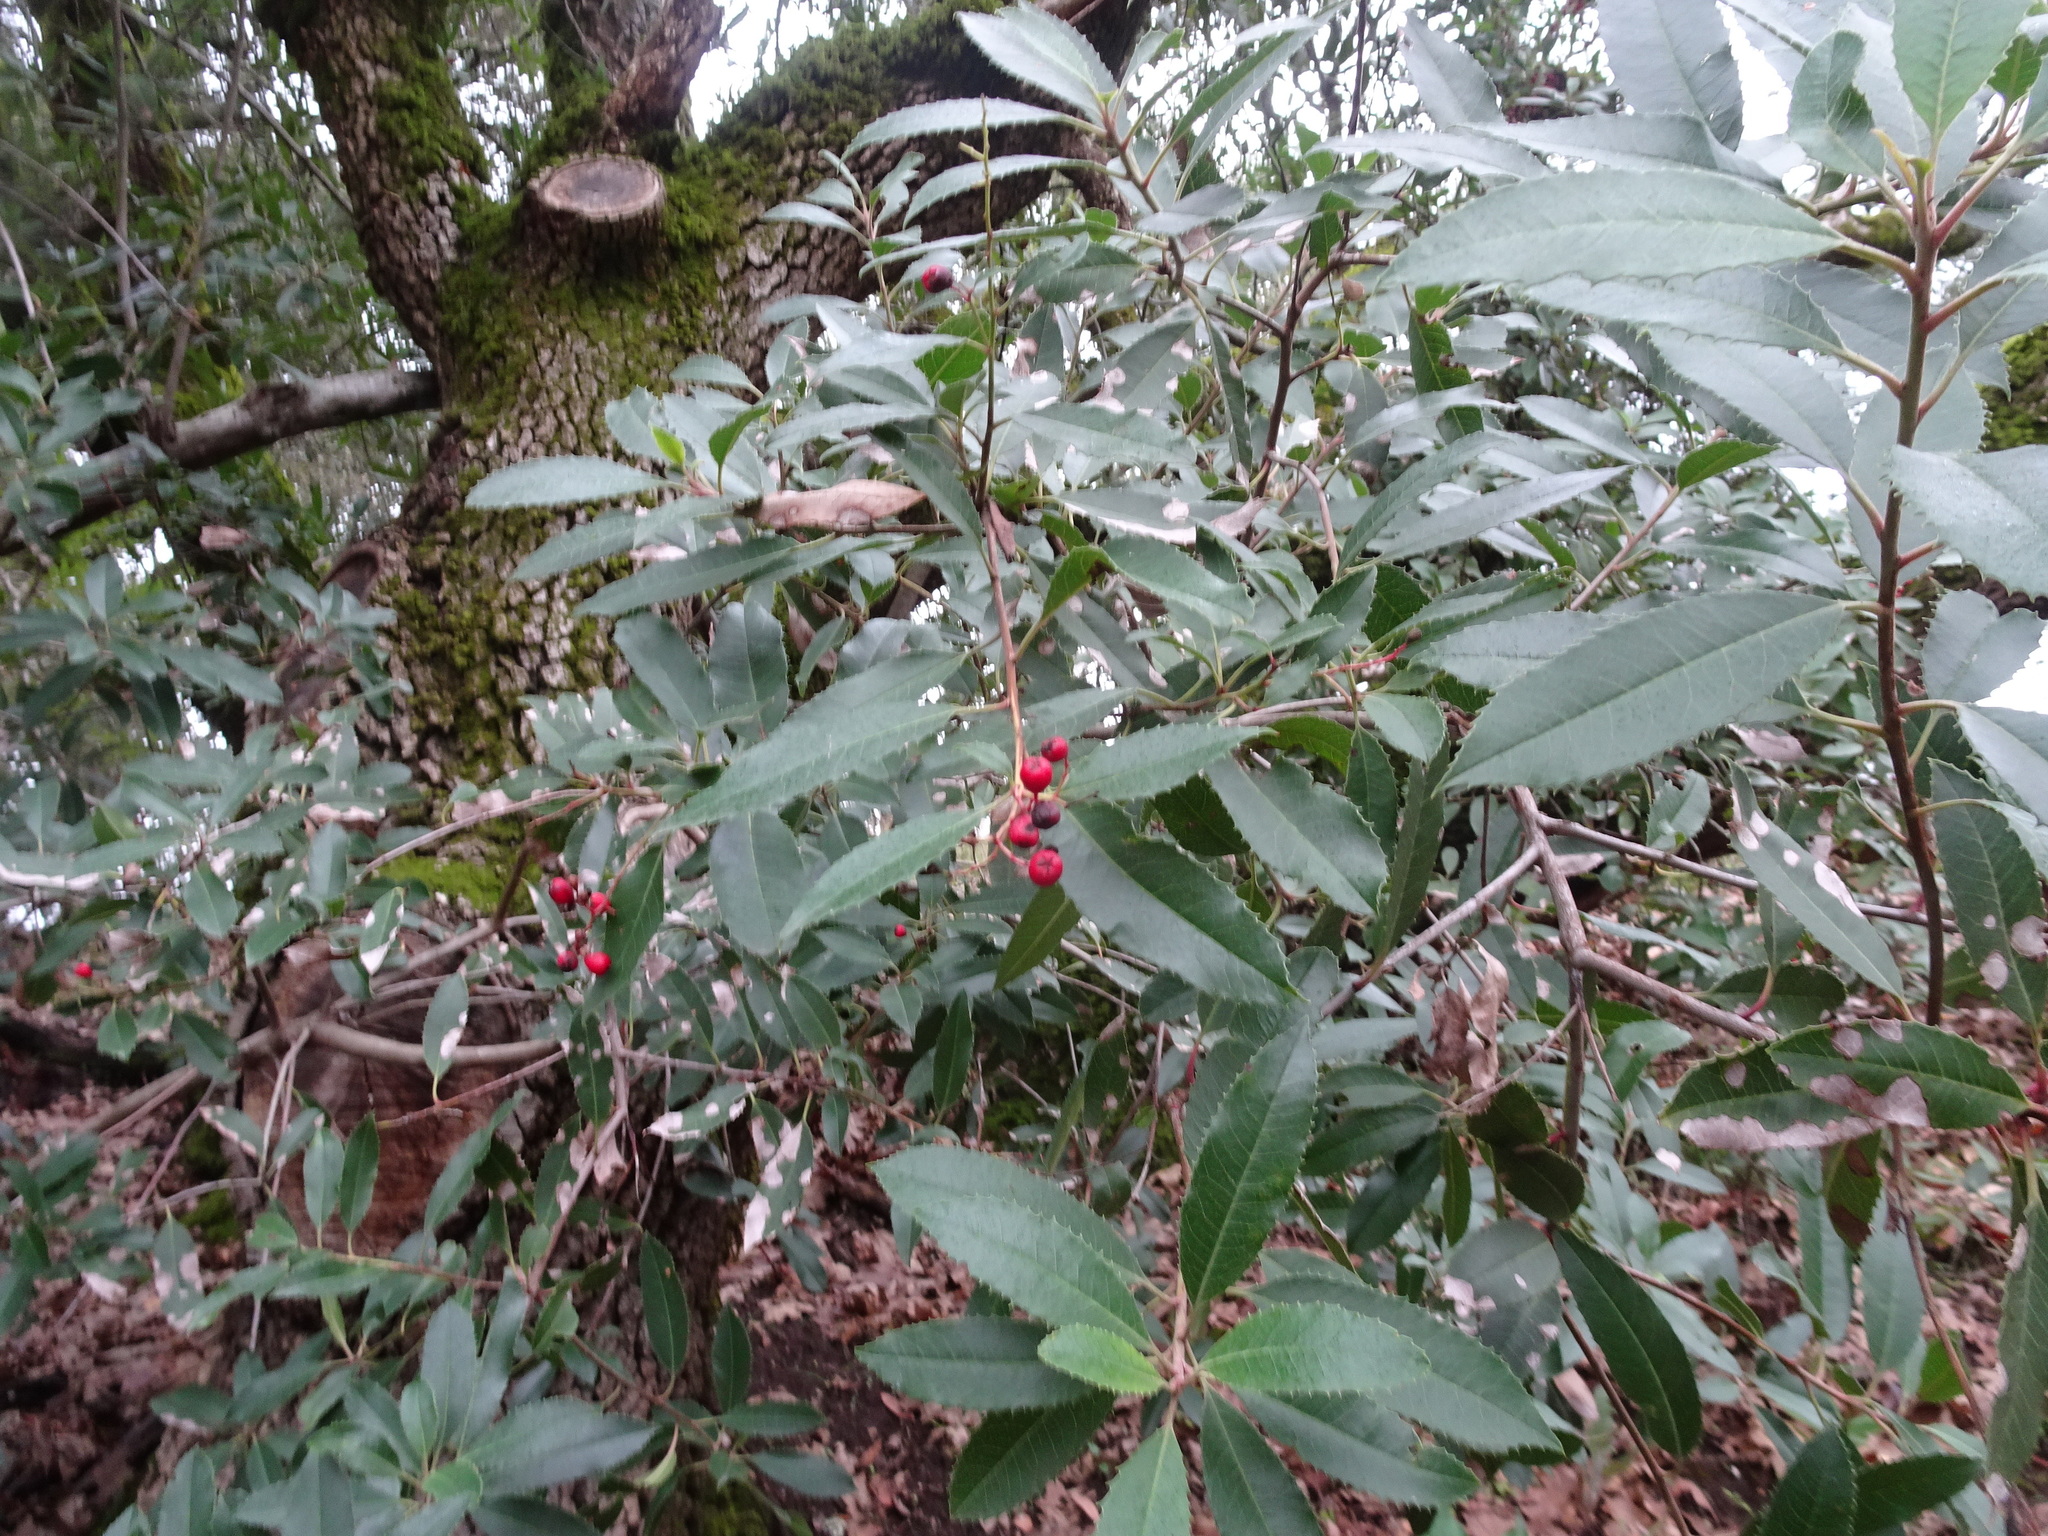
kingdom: Plantae
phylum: Tracheophyta
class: Magnoliopsida
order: Rosales
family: Rosaceae
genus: Heteromeles
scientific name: Heteromeles arbutifolia
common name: California-holly
